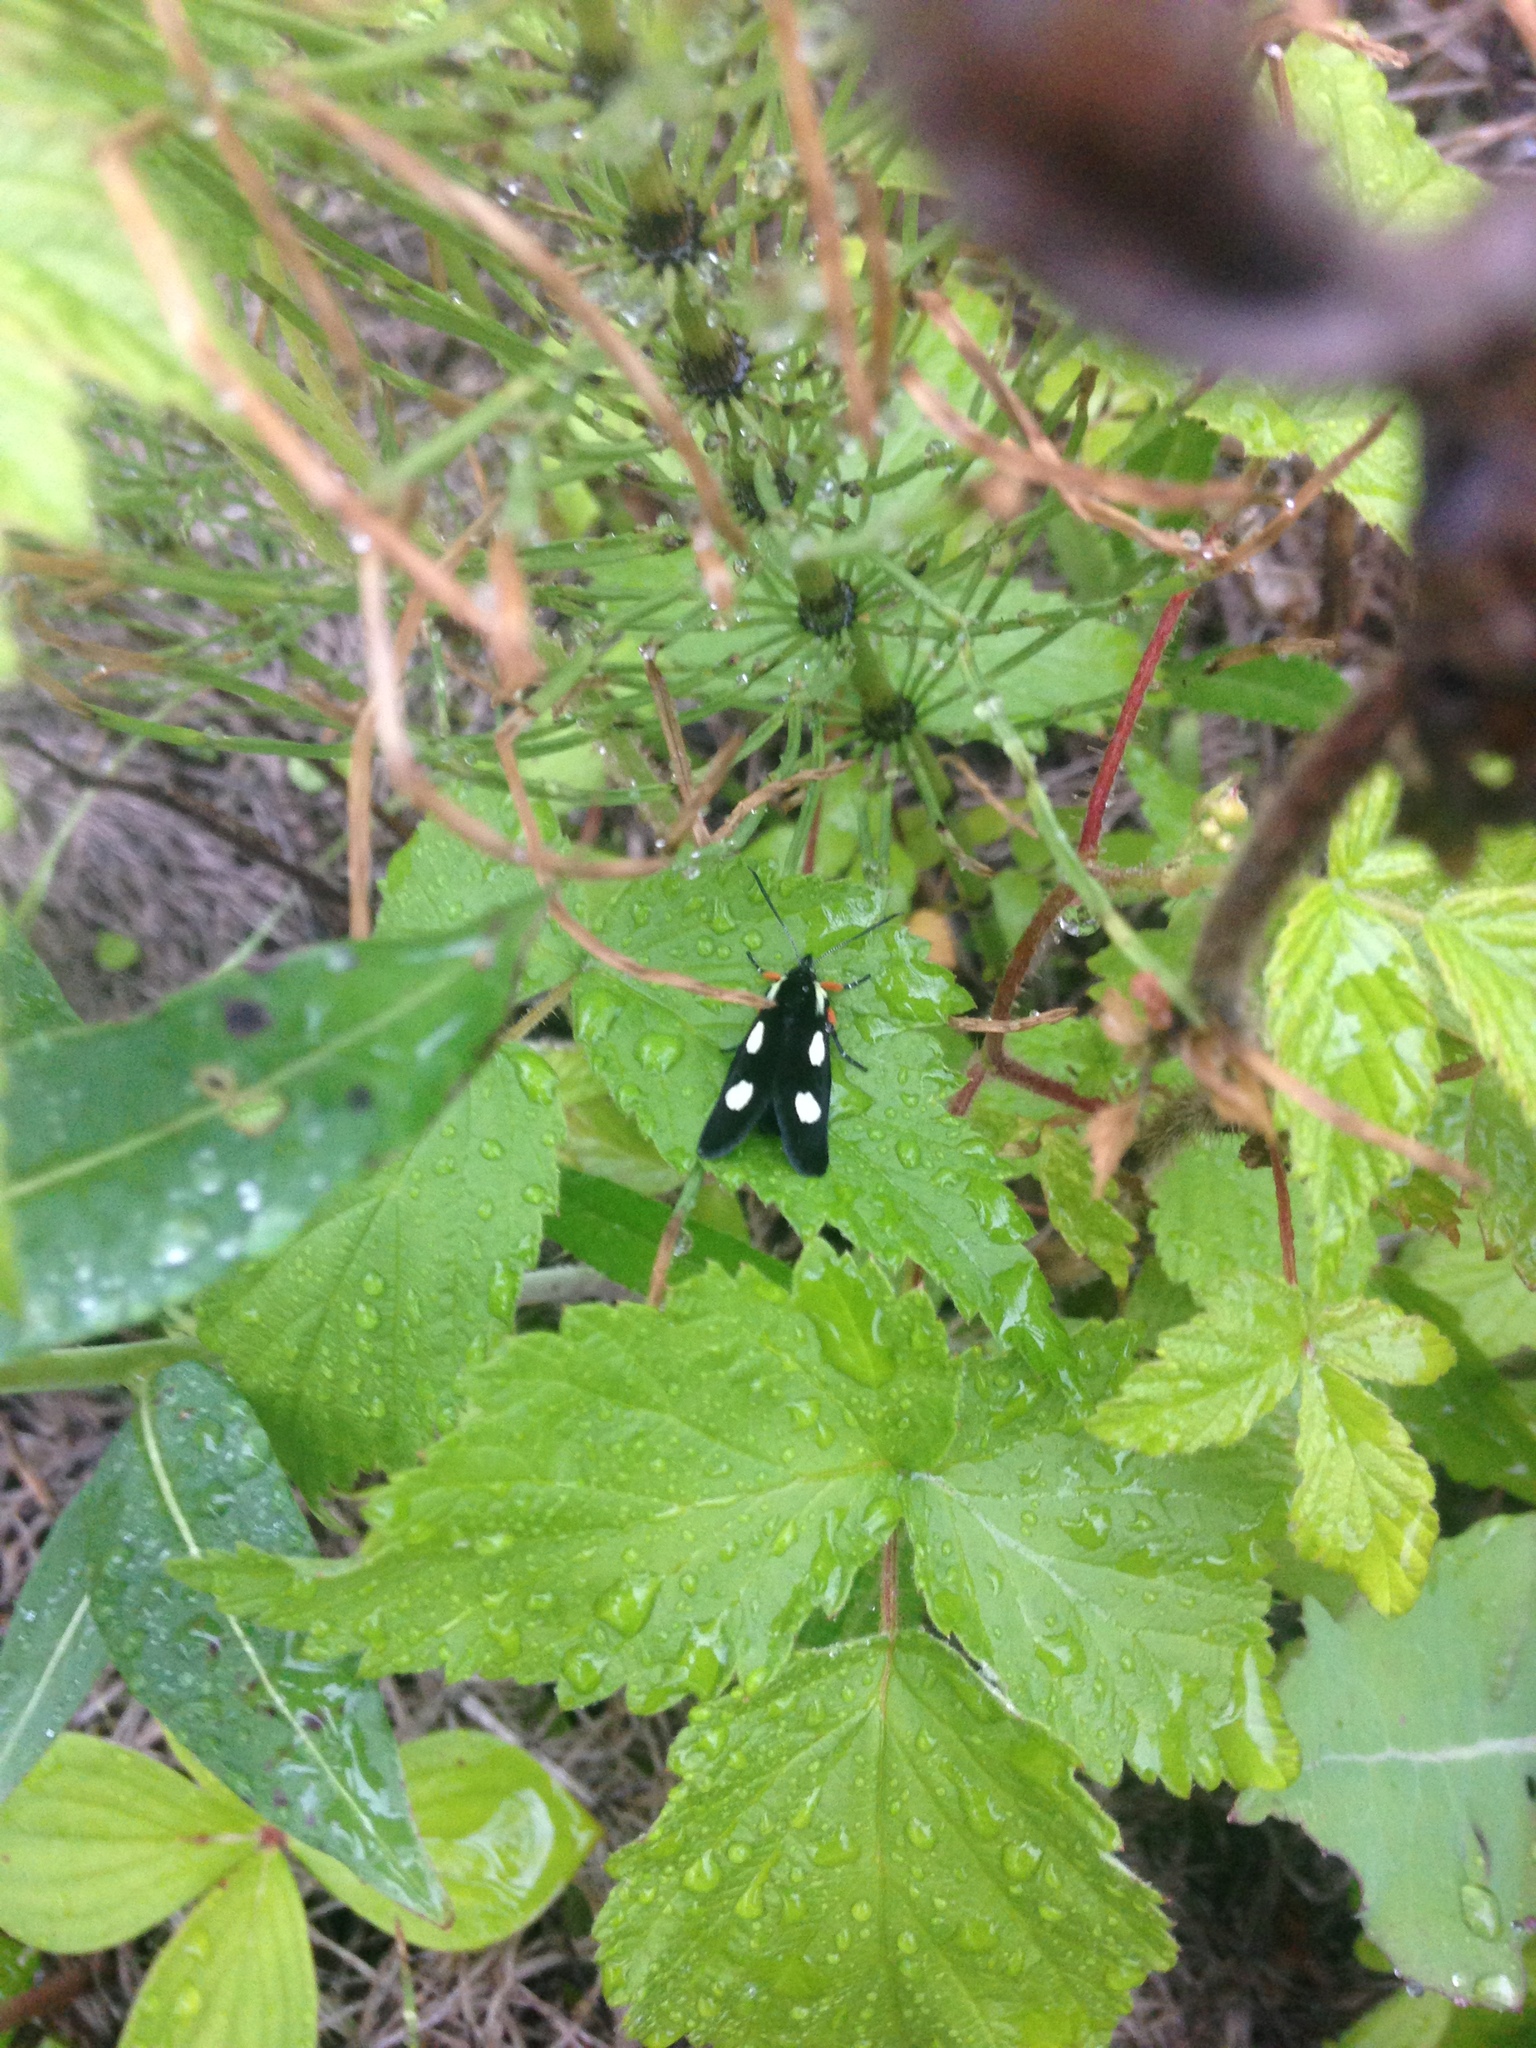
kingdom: Animalia
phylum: Arthropoda
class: Insecta
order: Lepidoptera
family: Noctuidae
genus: Alypia
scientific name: Alypia langtonii
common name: Fireweed caterpillar
